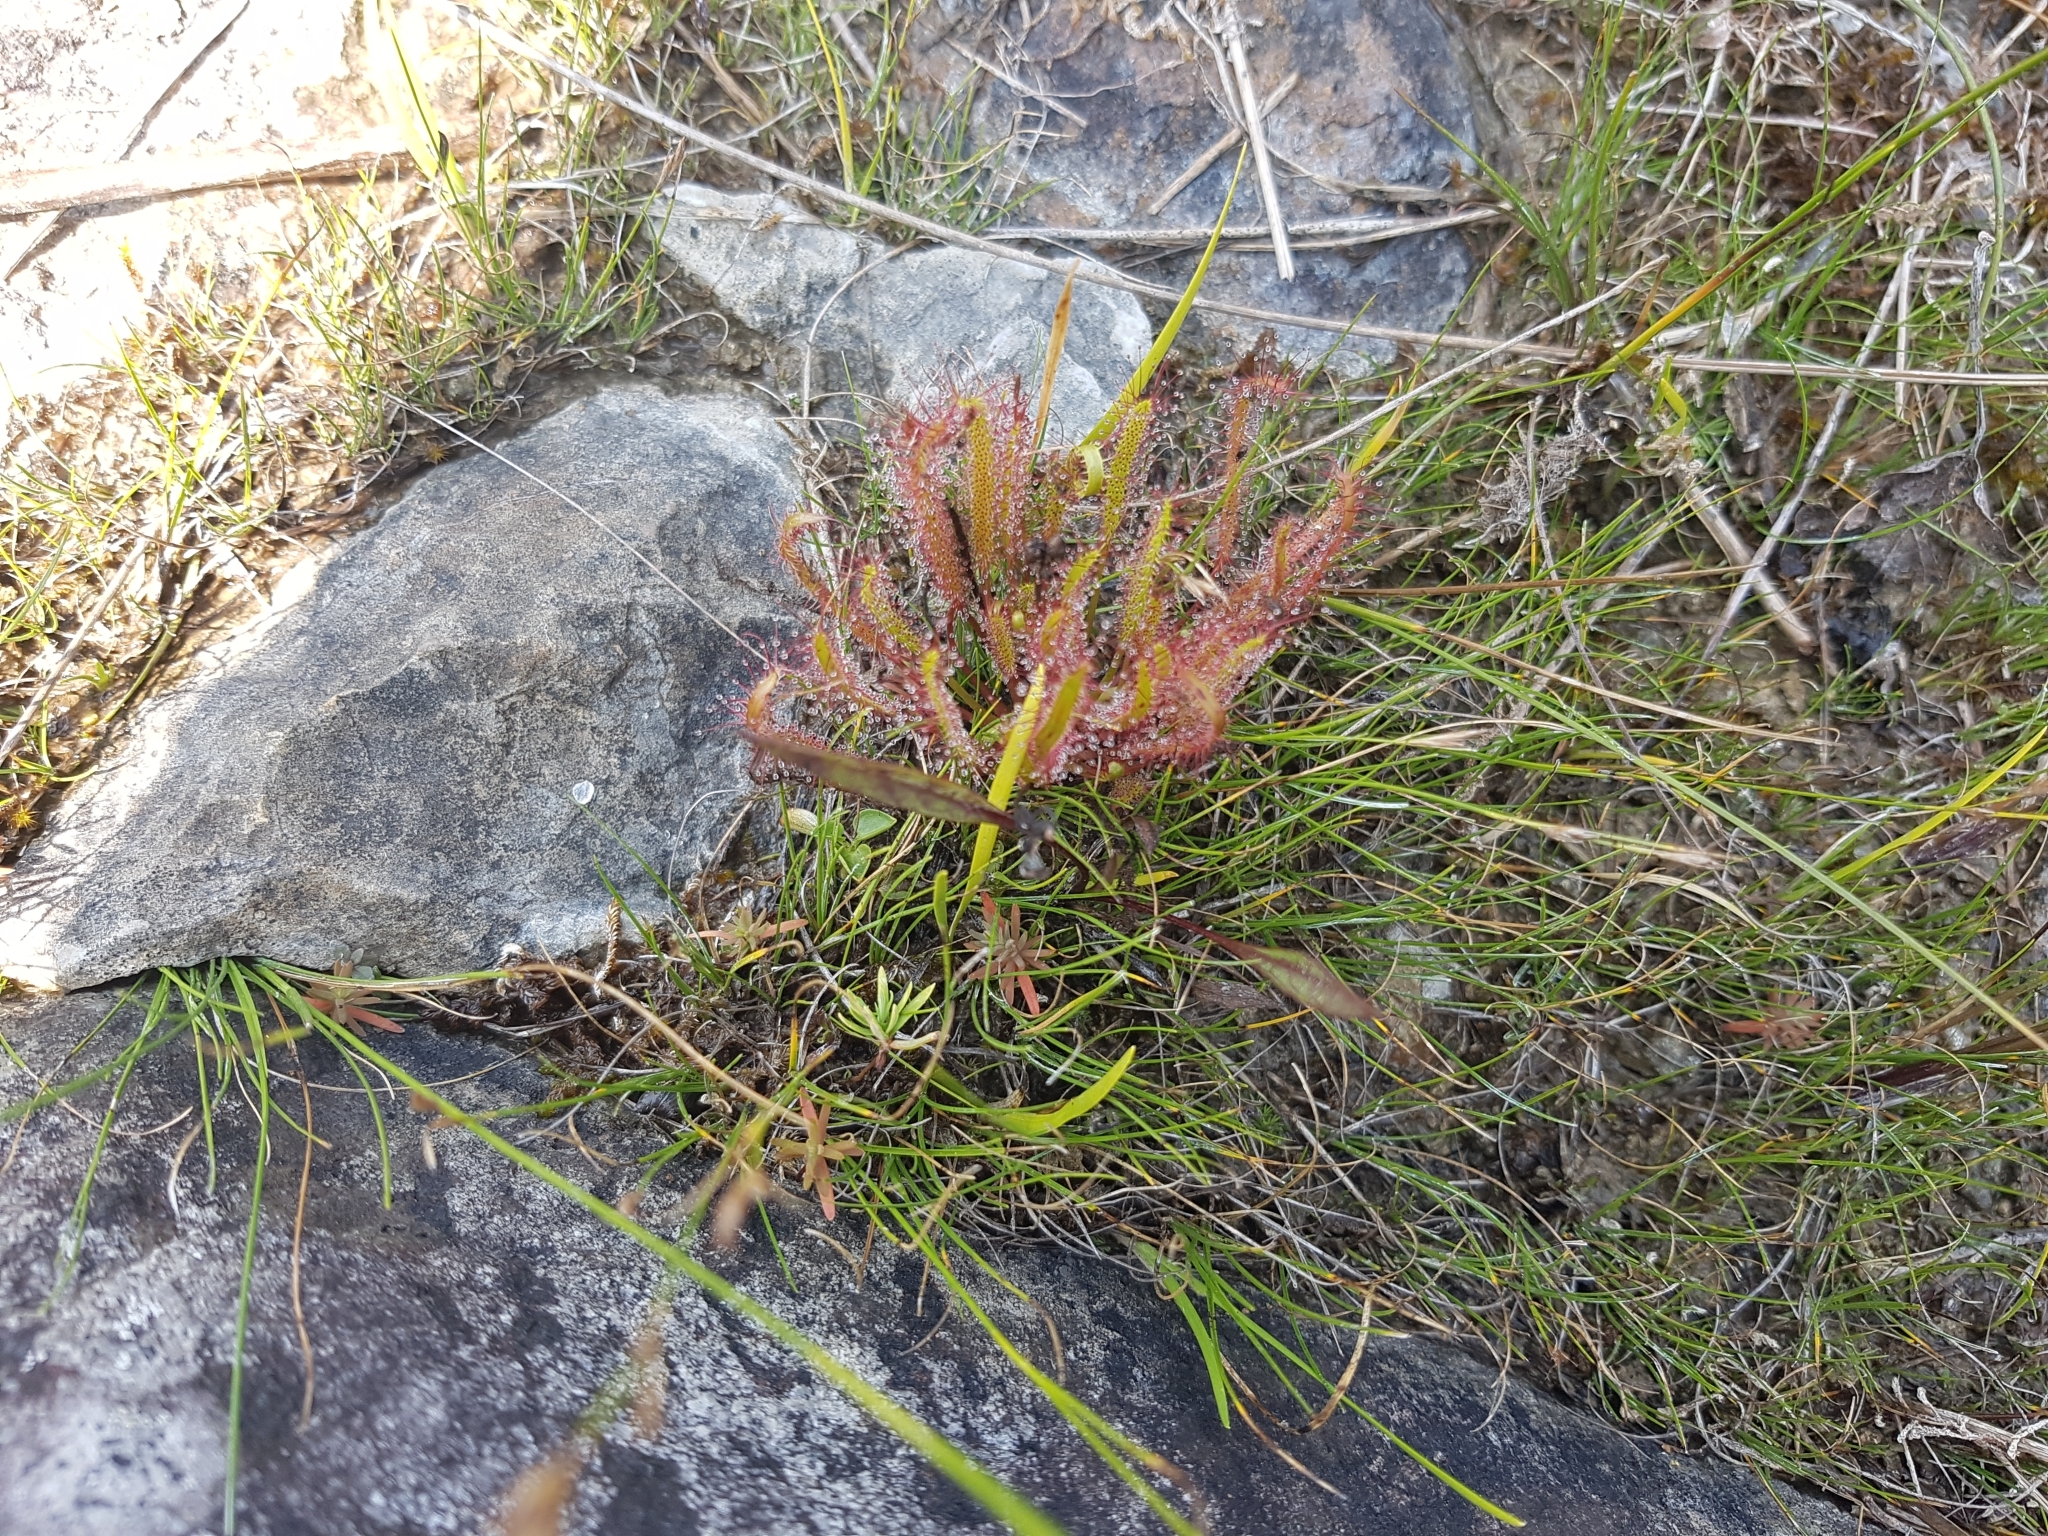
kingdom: Plantae
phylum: Tracheophyta
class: Magnoliopsida
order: Caryophyllales
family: Droseraceae
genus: Drosera
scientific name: Drosera linearis
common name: Linear-leaved sundew
